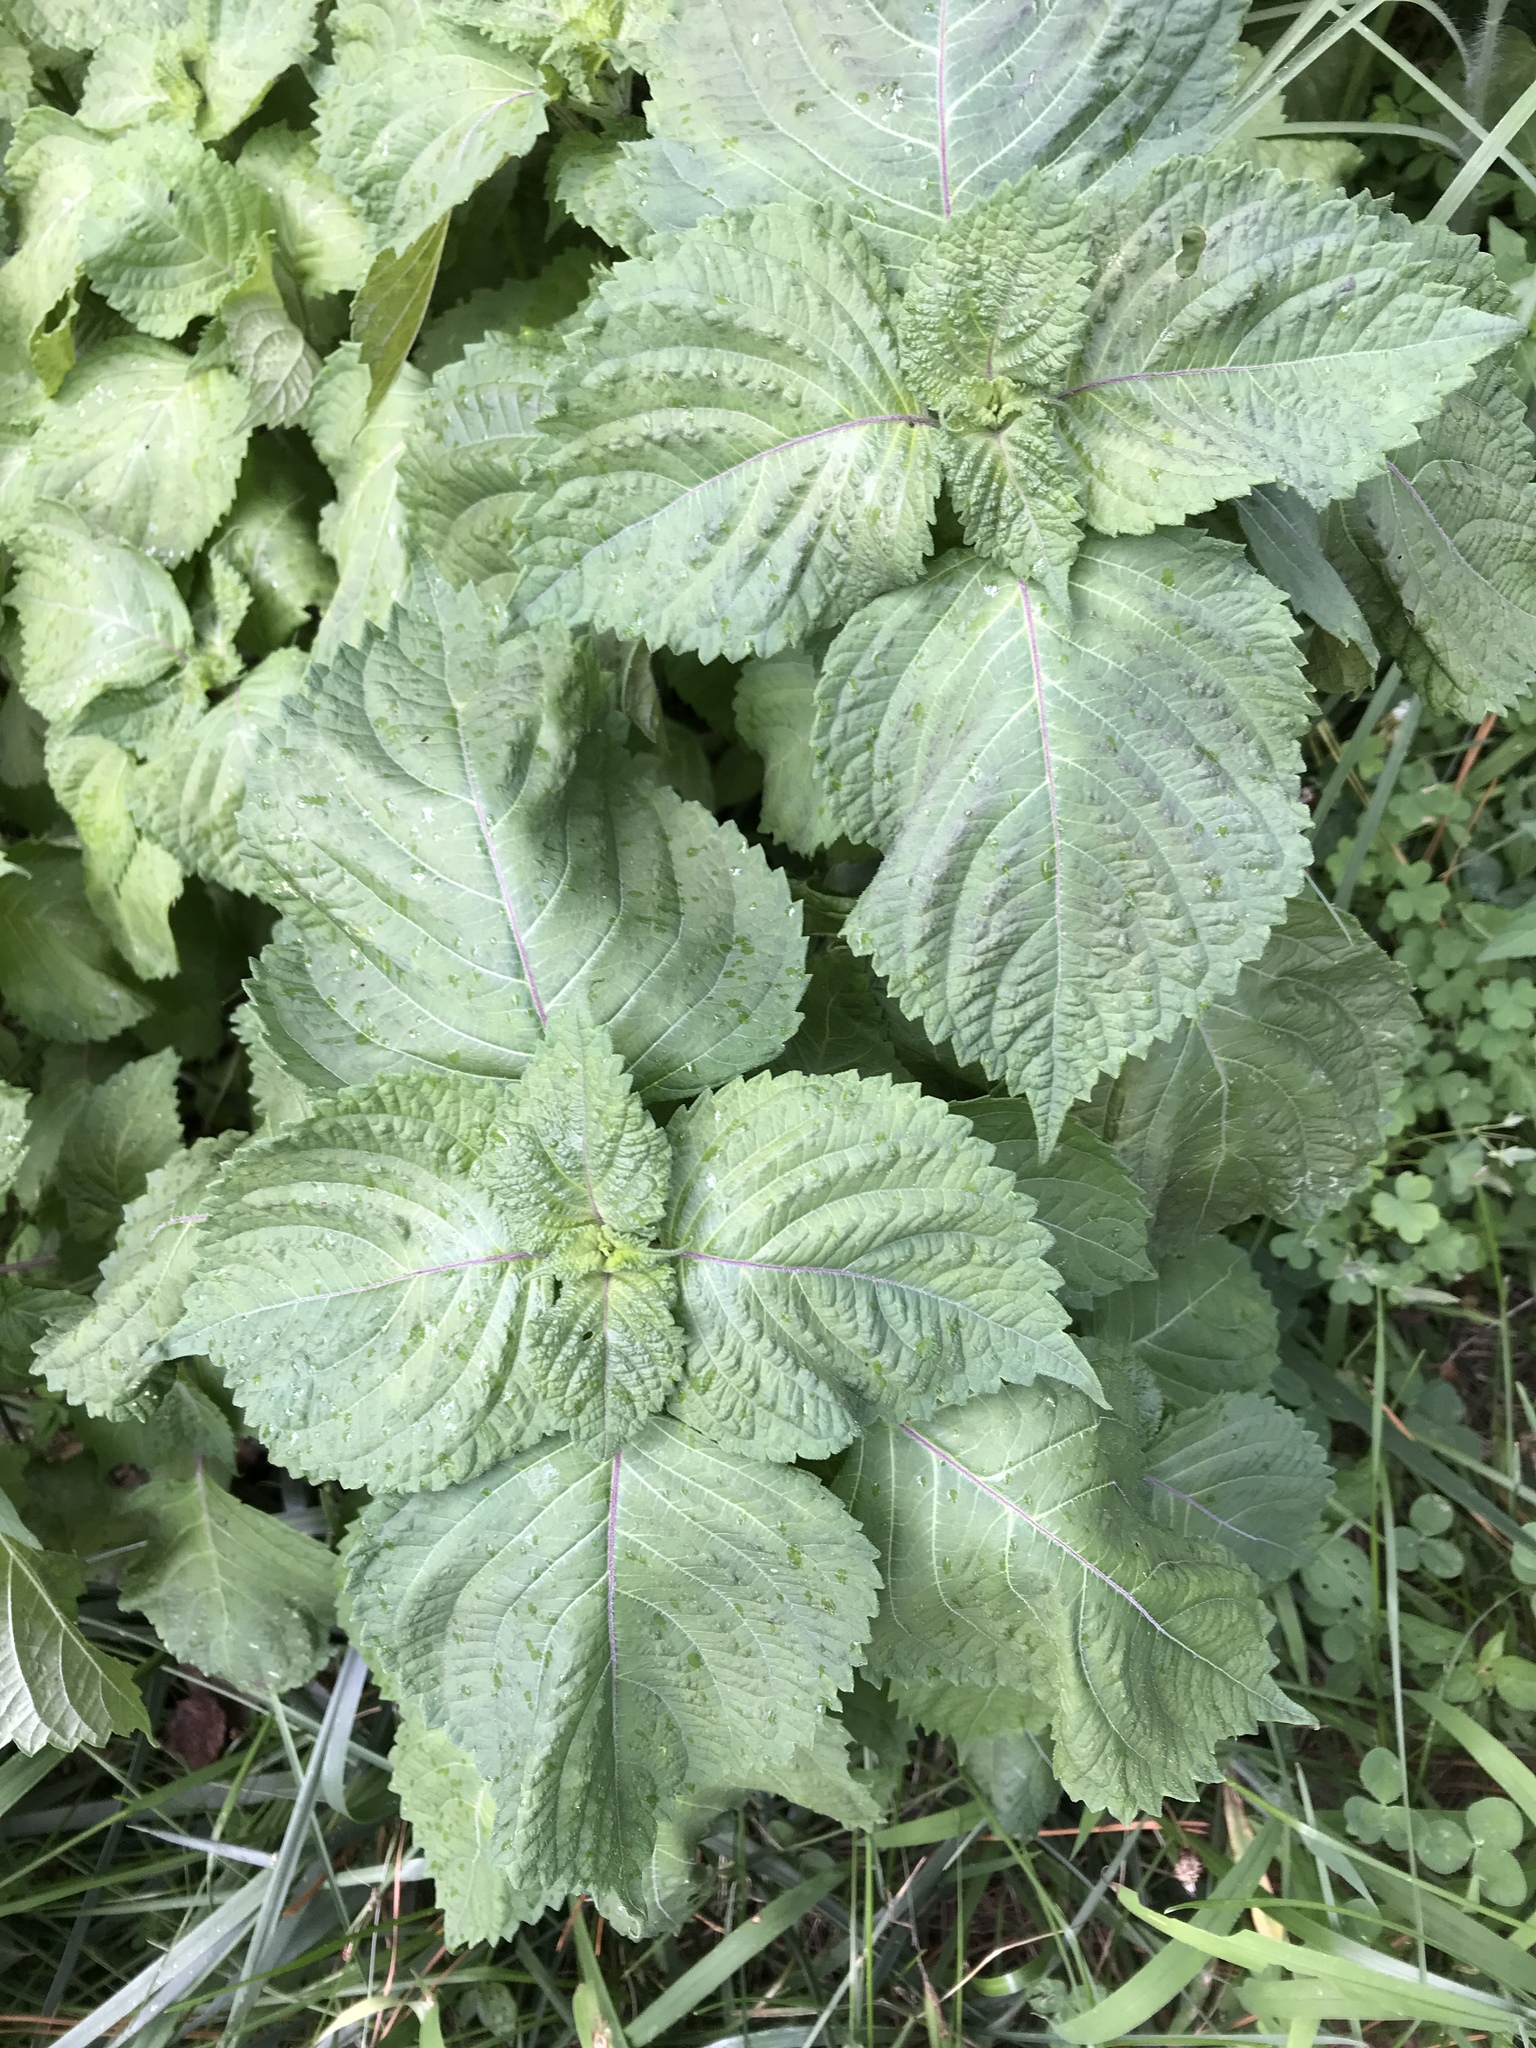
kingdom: Plantae
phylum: Tracheophyta
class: Magnoliopsida
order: Lamiales
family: Lamiaceae
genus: Perilla
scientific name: Perilla frutescens
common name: Perilla
